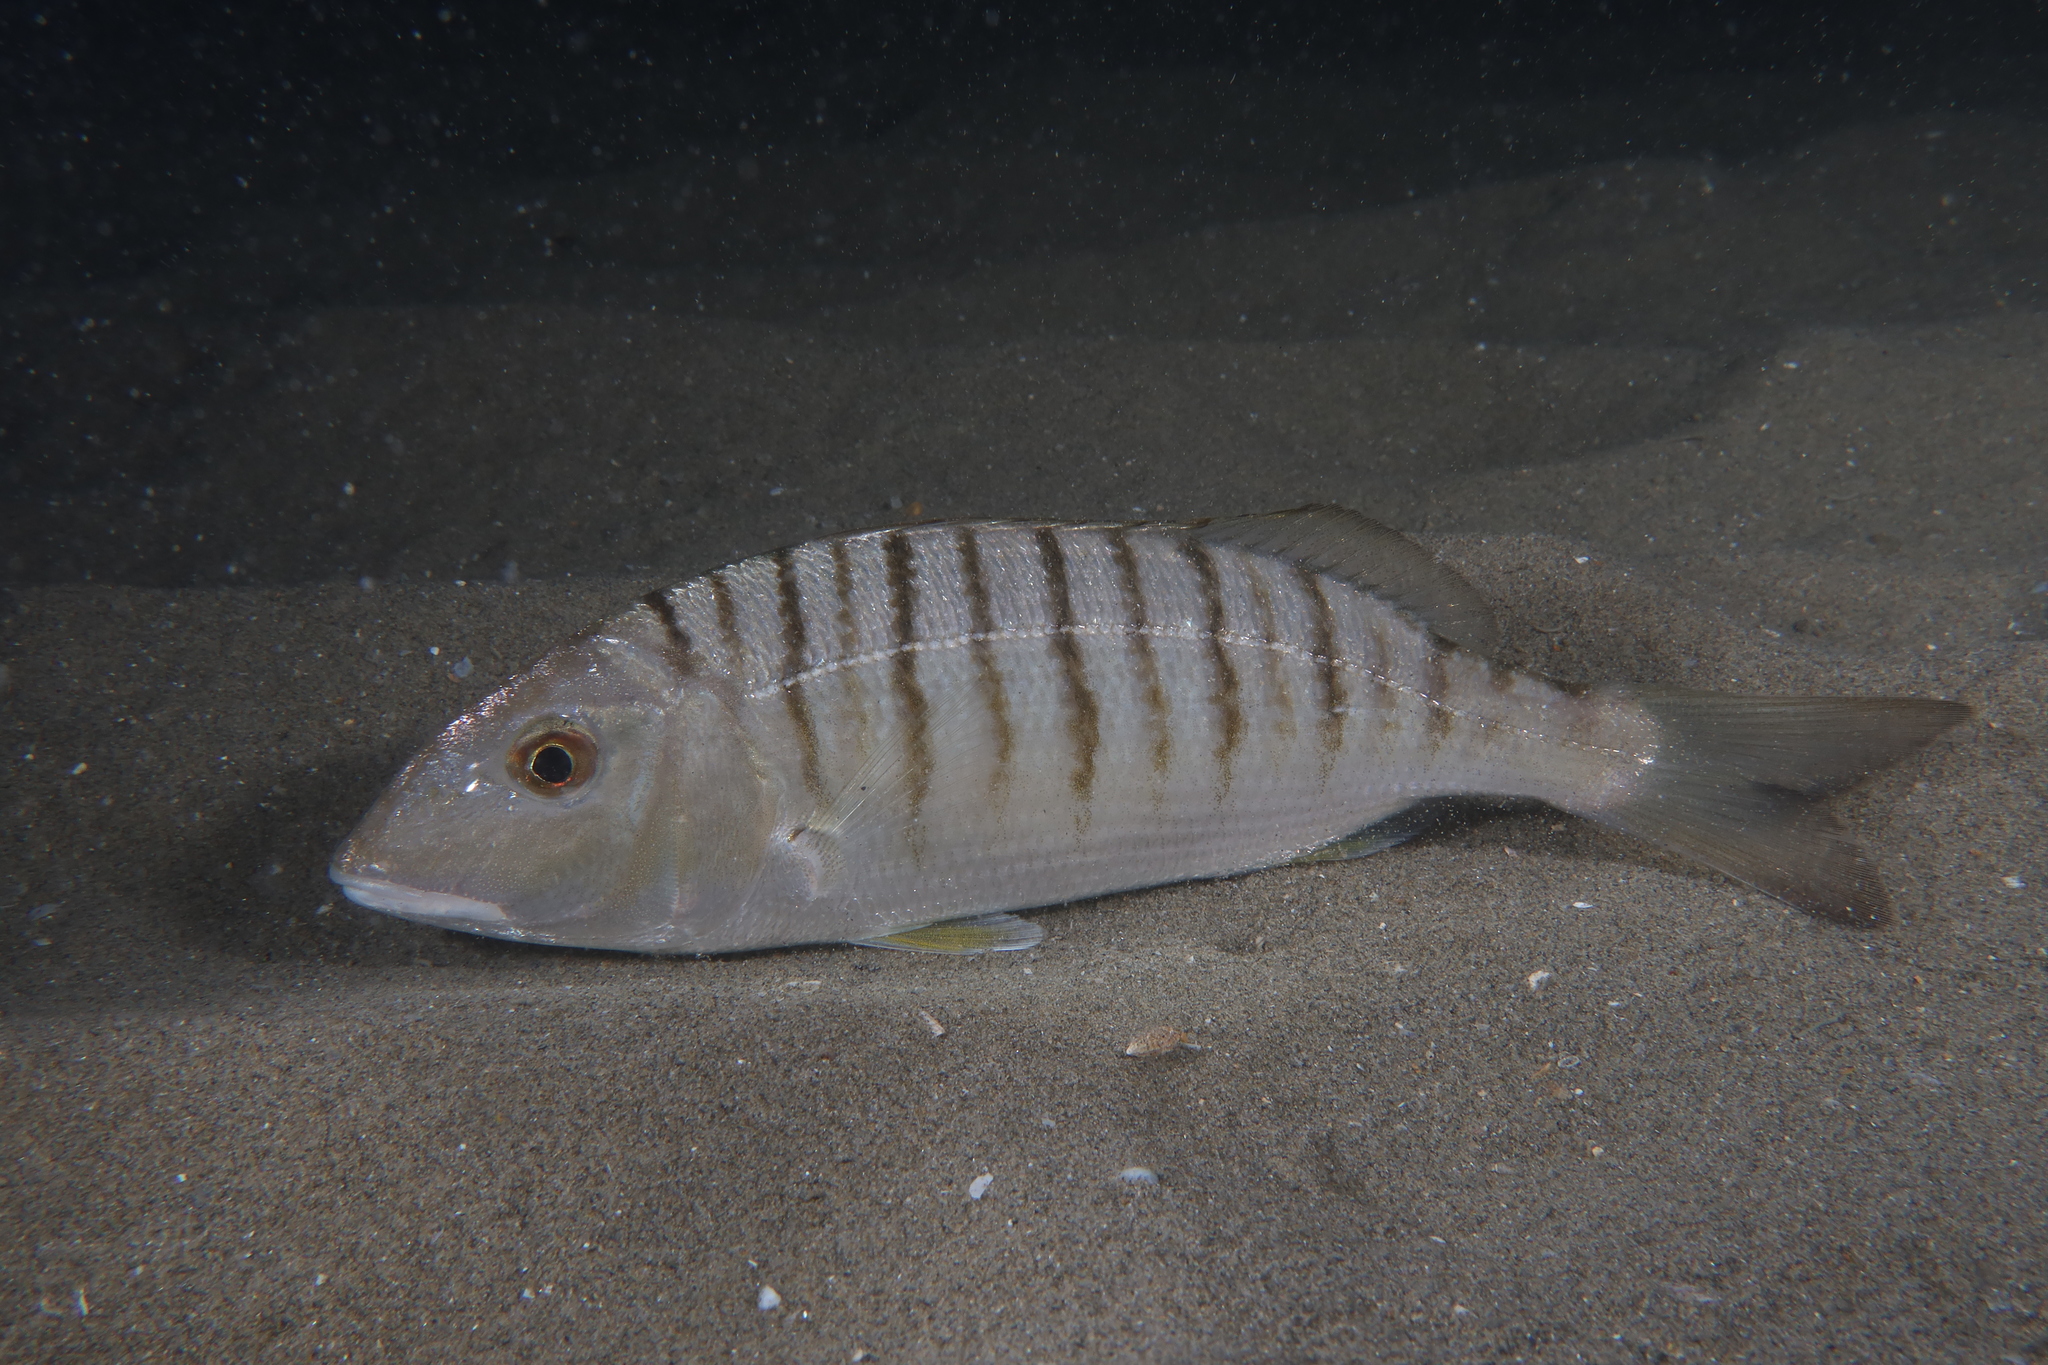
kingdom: Animalia
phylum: Chordata
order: Perciformes
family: Sparidae
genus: Lithognathus
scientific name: Lithognathus mormyrus
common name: Sand steenbras
